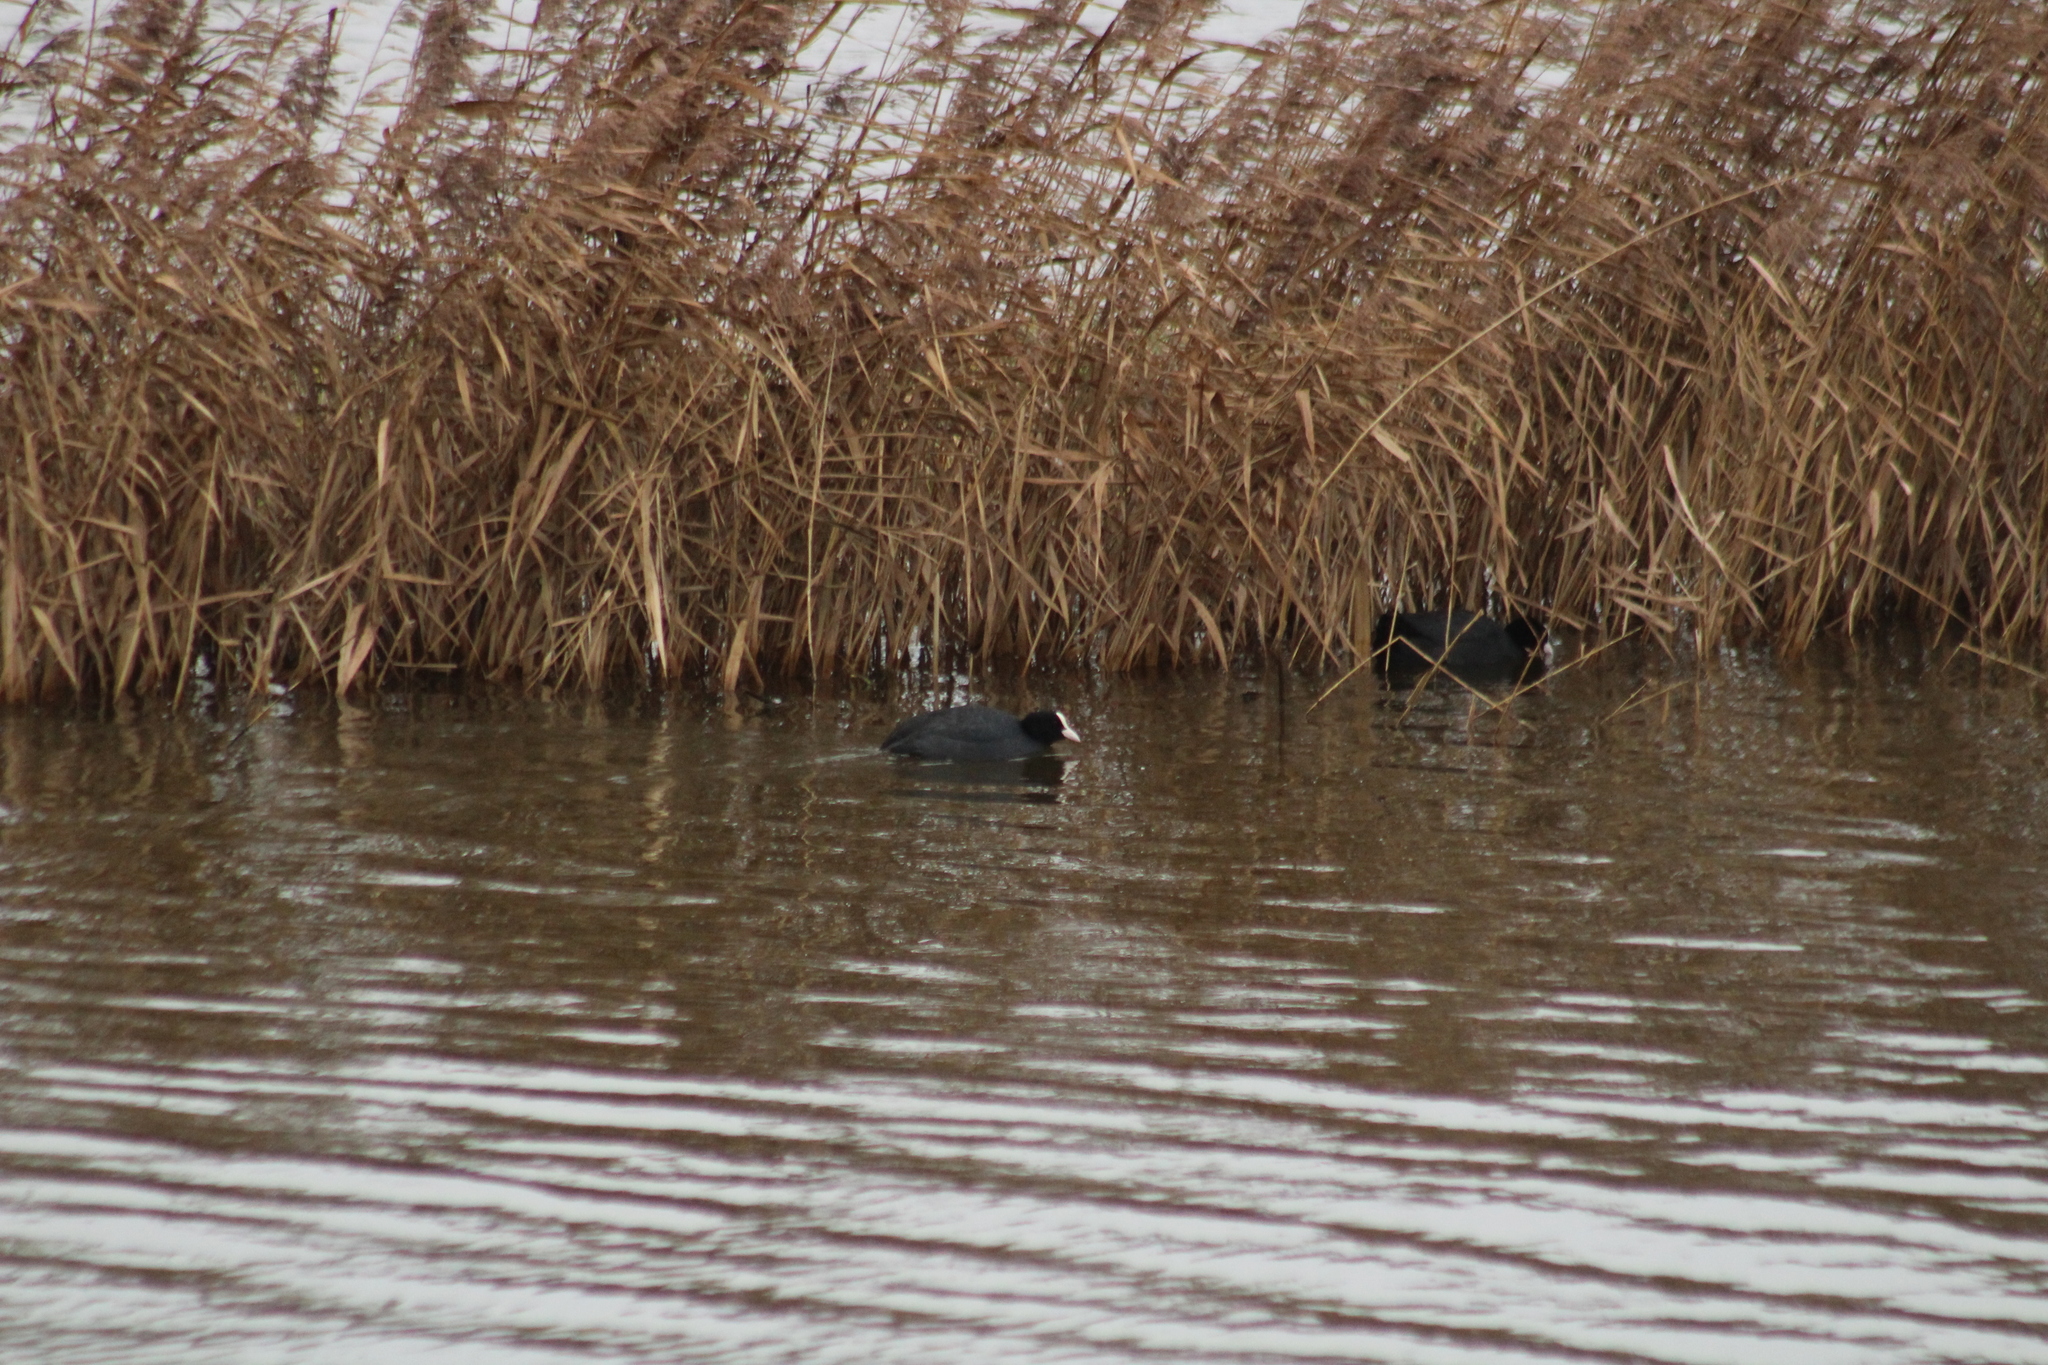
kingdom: Animalia
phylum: Chordata
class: Aves
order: Gruiformes
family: Rallidae
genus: Fulica
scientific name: Fulica atra
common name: Eurasian coot
